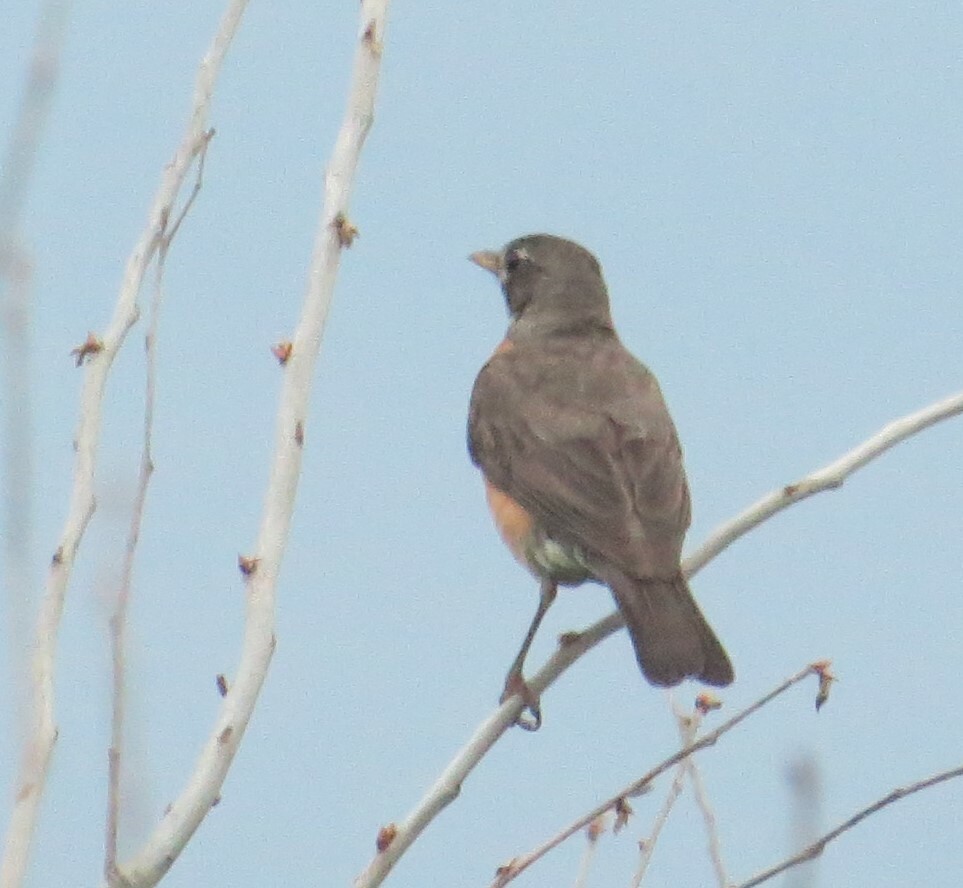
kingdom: Animalia
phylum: Chordata
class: Aves
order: Passeriformes
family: Turdidae
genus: Turdus
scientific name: Turdus migratorius
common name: American robin
